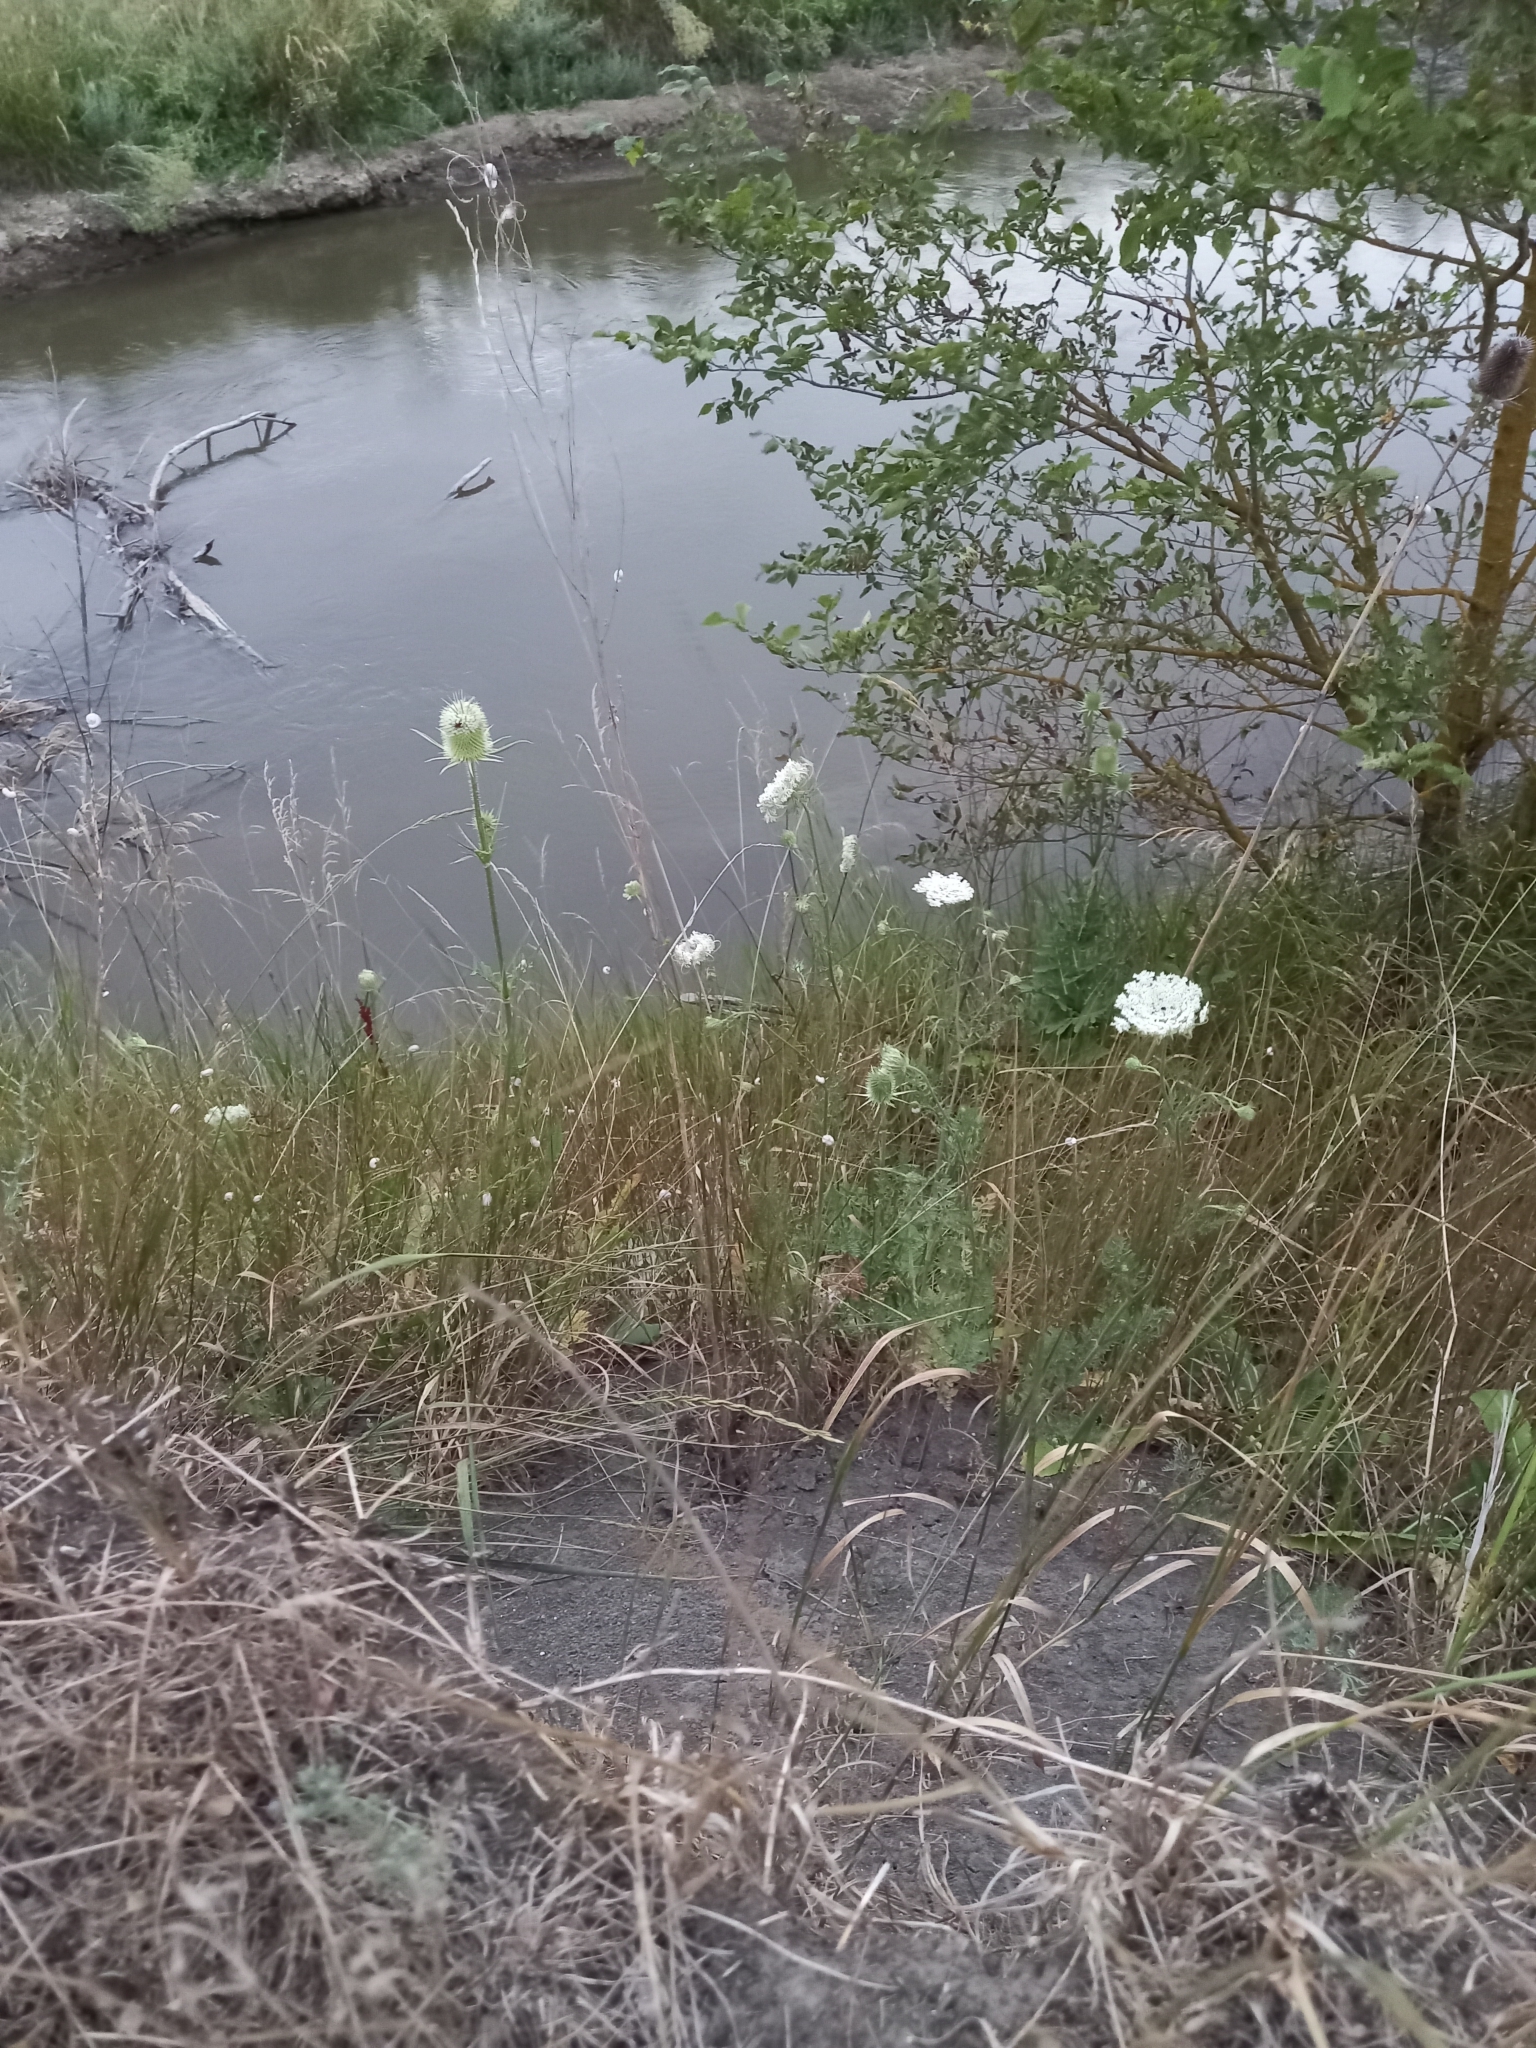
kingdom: Plantae
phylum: Tracheophyta
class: Magnoliopsida
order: Apiales
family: Apiaceae
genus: Daucus
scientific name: Daucus carota
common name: Wild carrot
